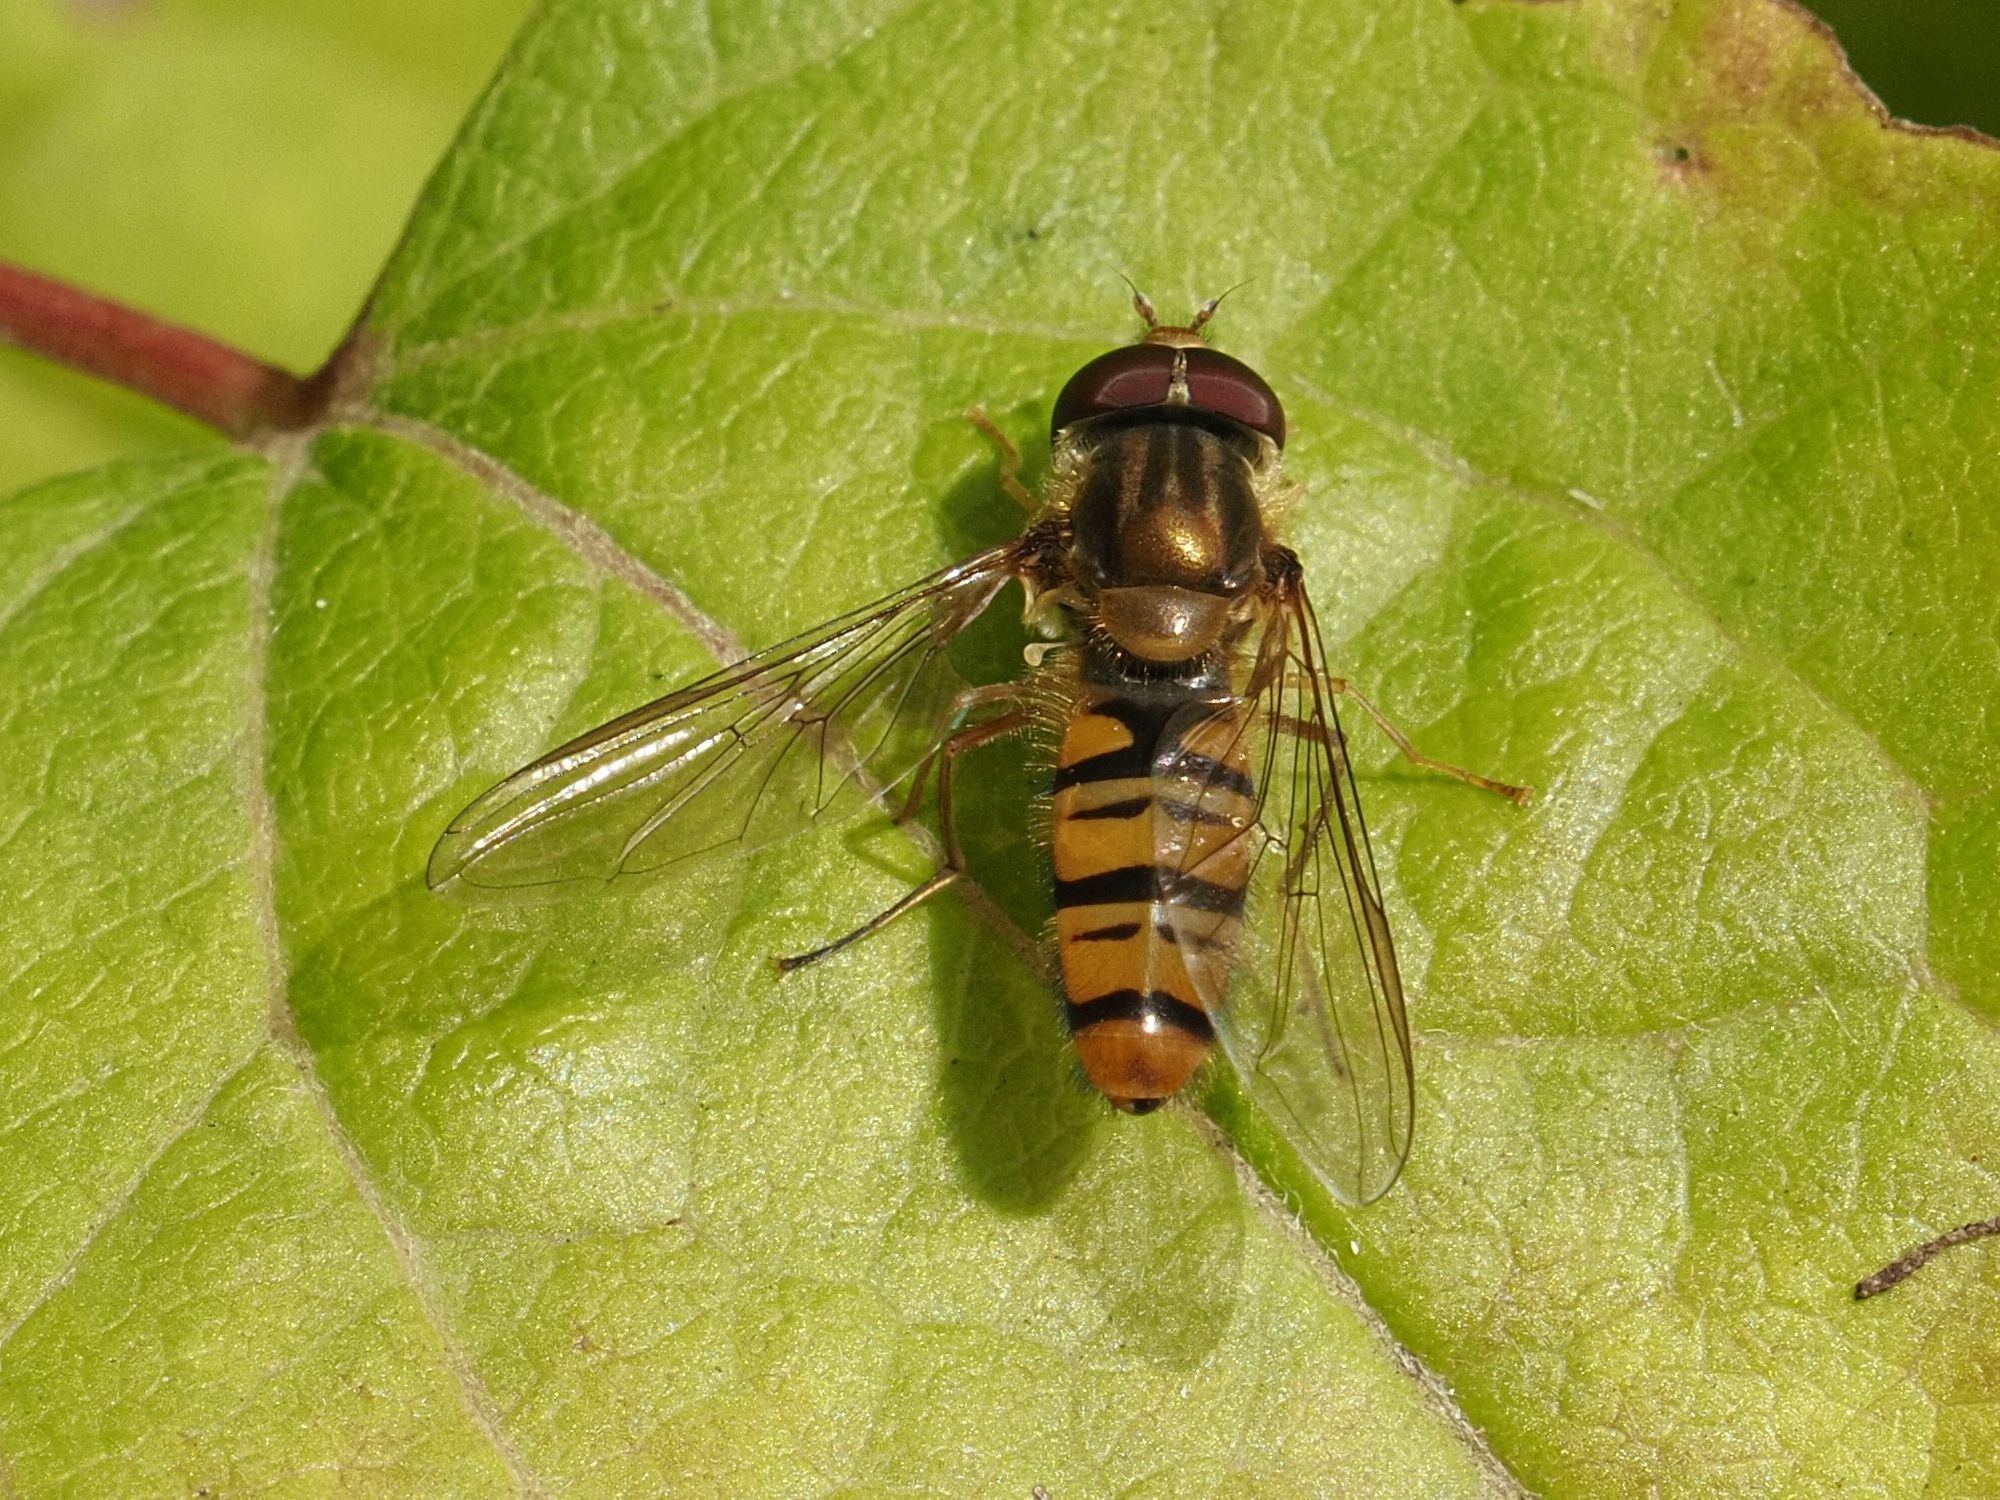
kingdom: Animalia
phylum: Arthropoda
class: Insecta
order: Diptera
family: Syrphidae
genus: Episyrphus
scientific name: Episyrphus balteatus
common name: Marmalade hoverfly
